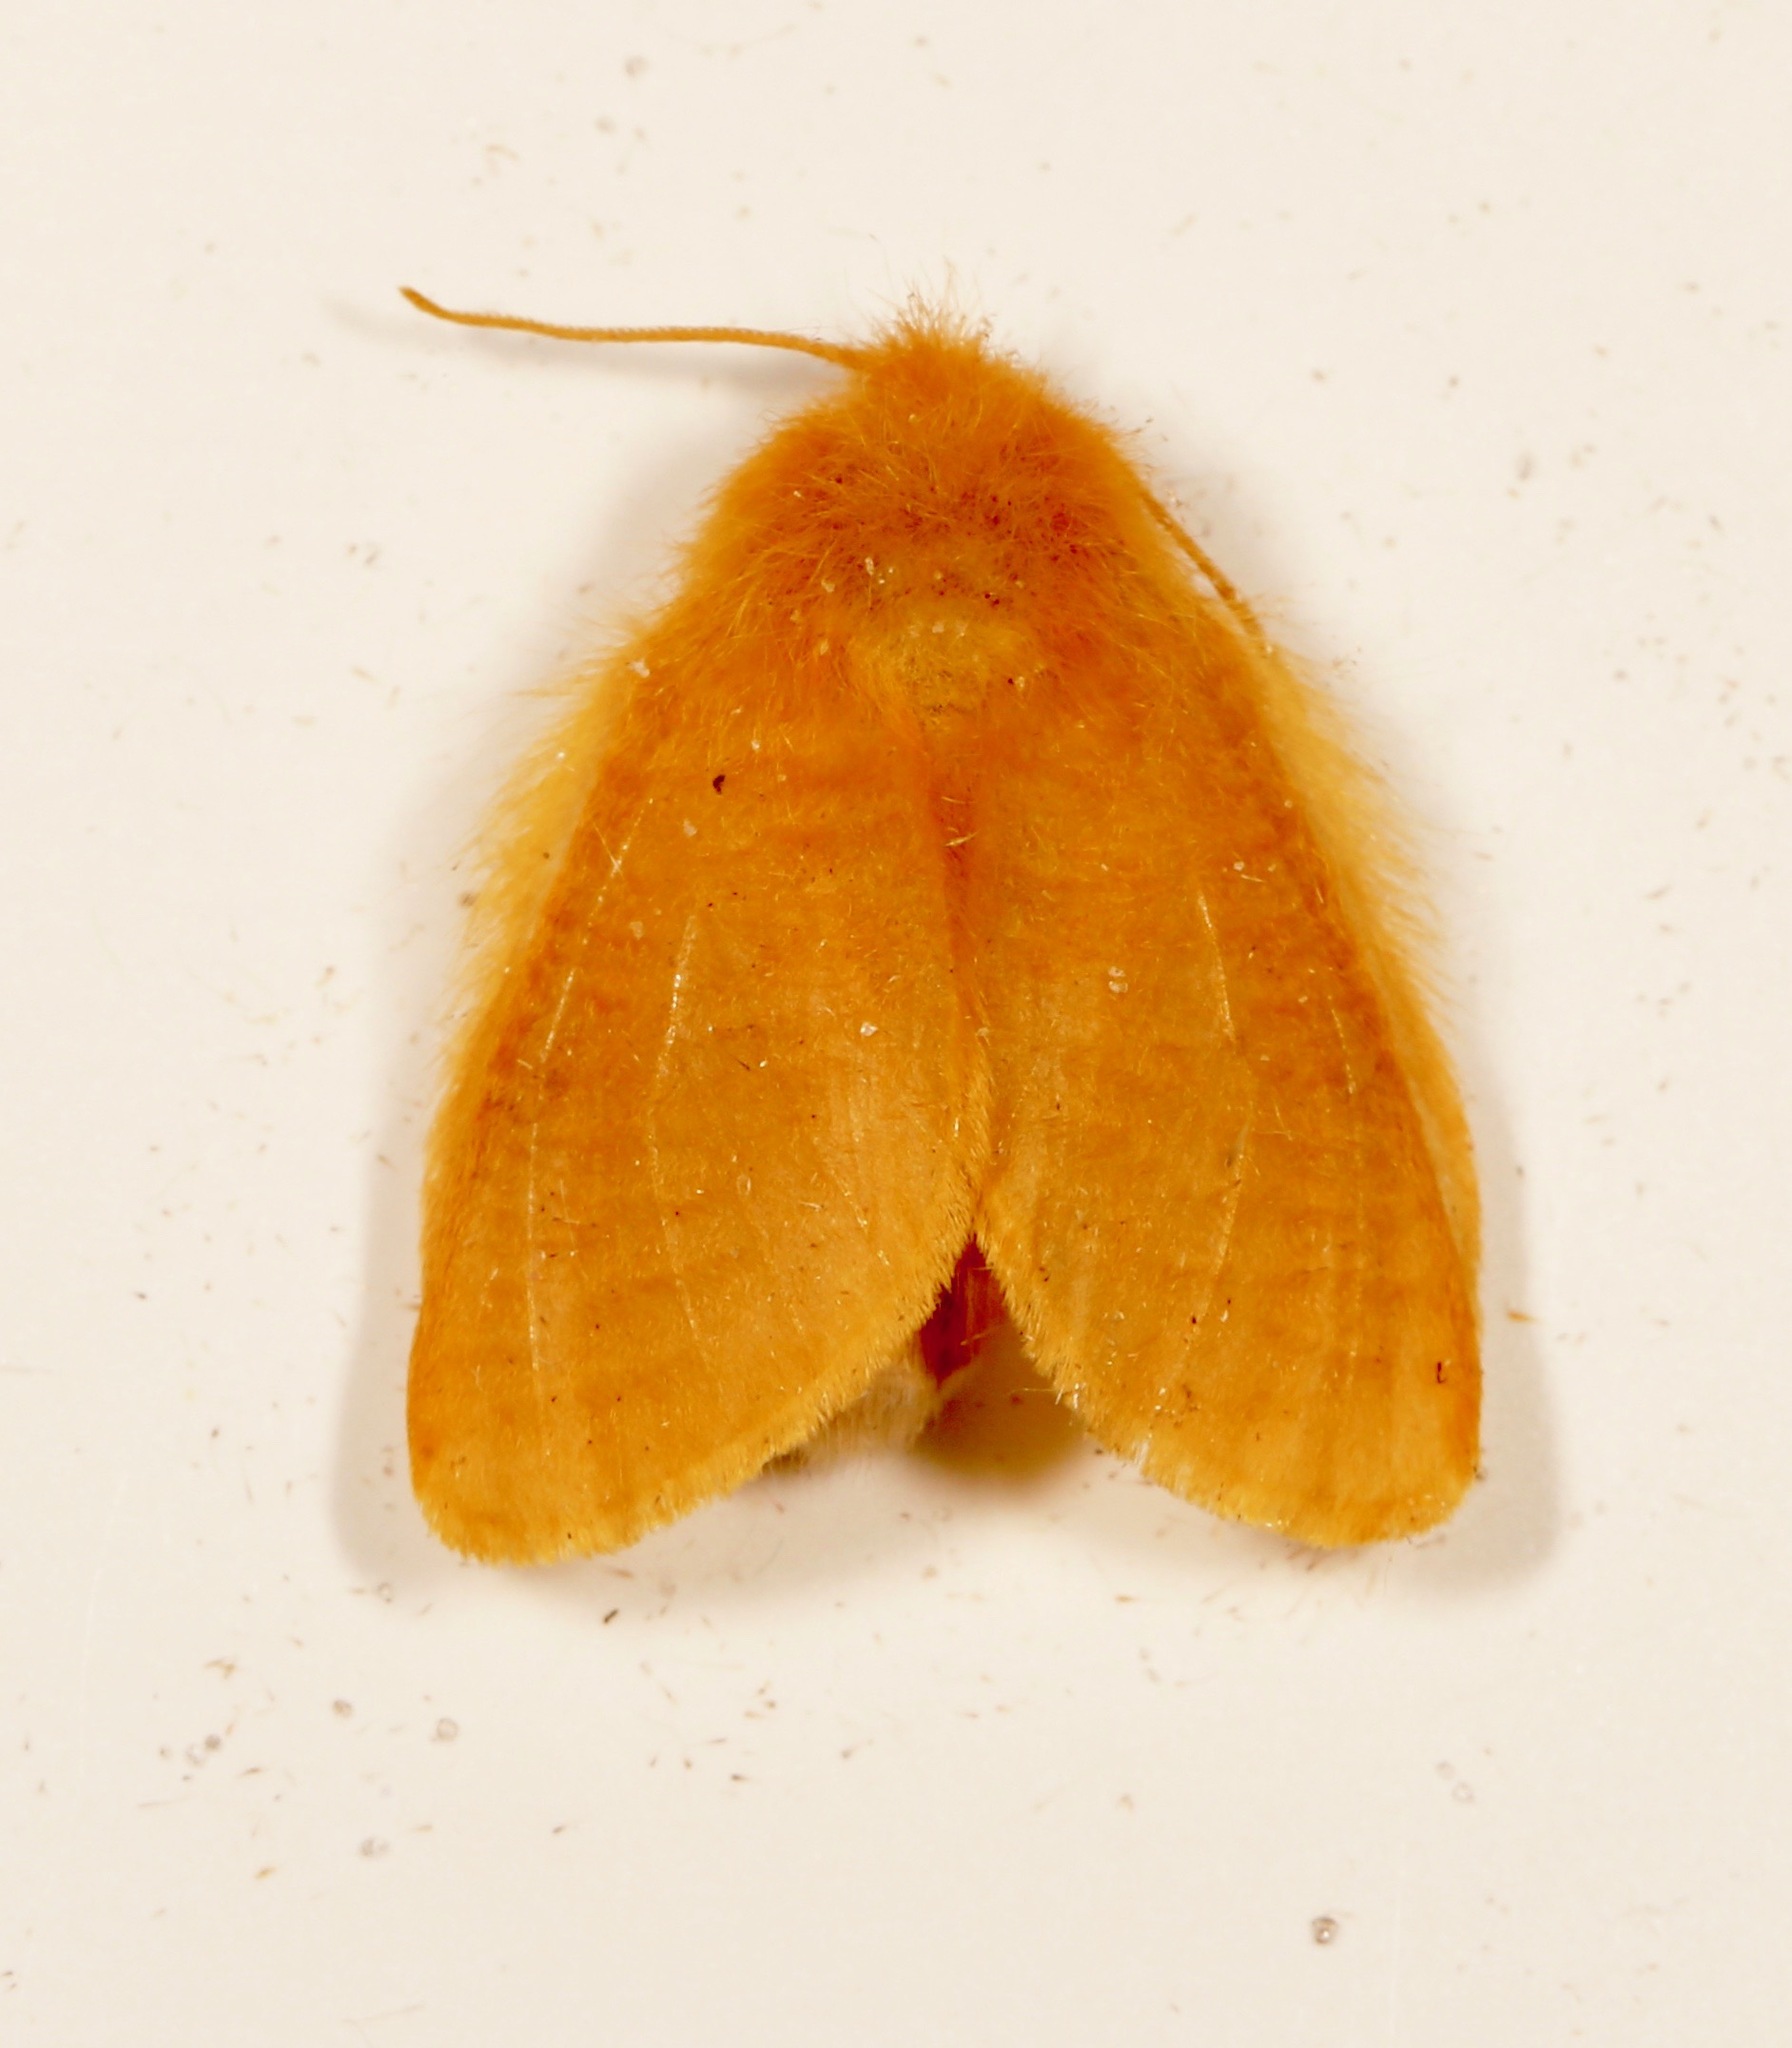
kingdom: Animalia
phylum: Arthropoda
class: Insecta
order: Lepidoptera
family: Megalopygidae
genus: Megalopyge
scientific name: Megalopyge pixidifera
